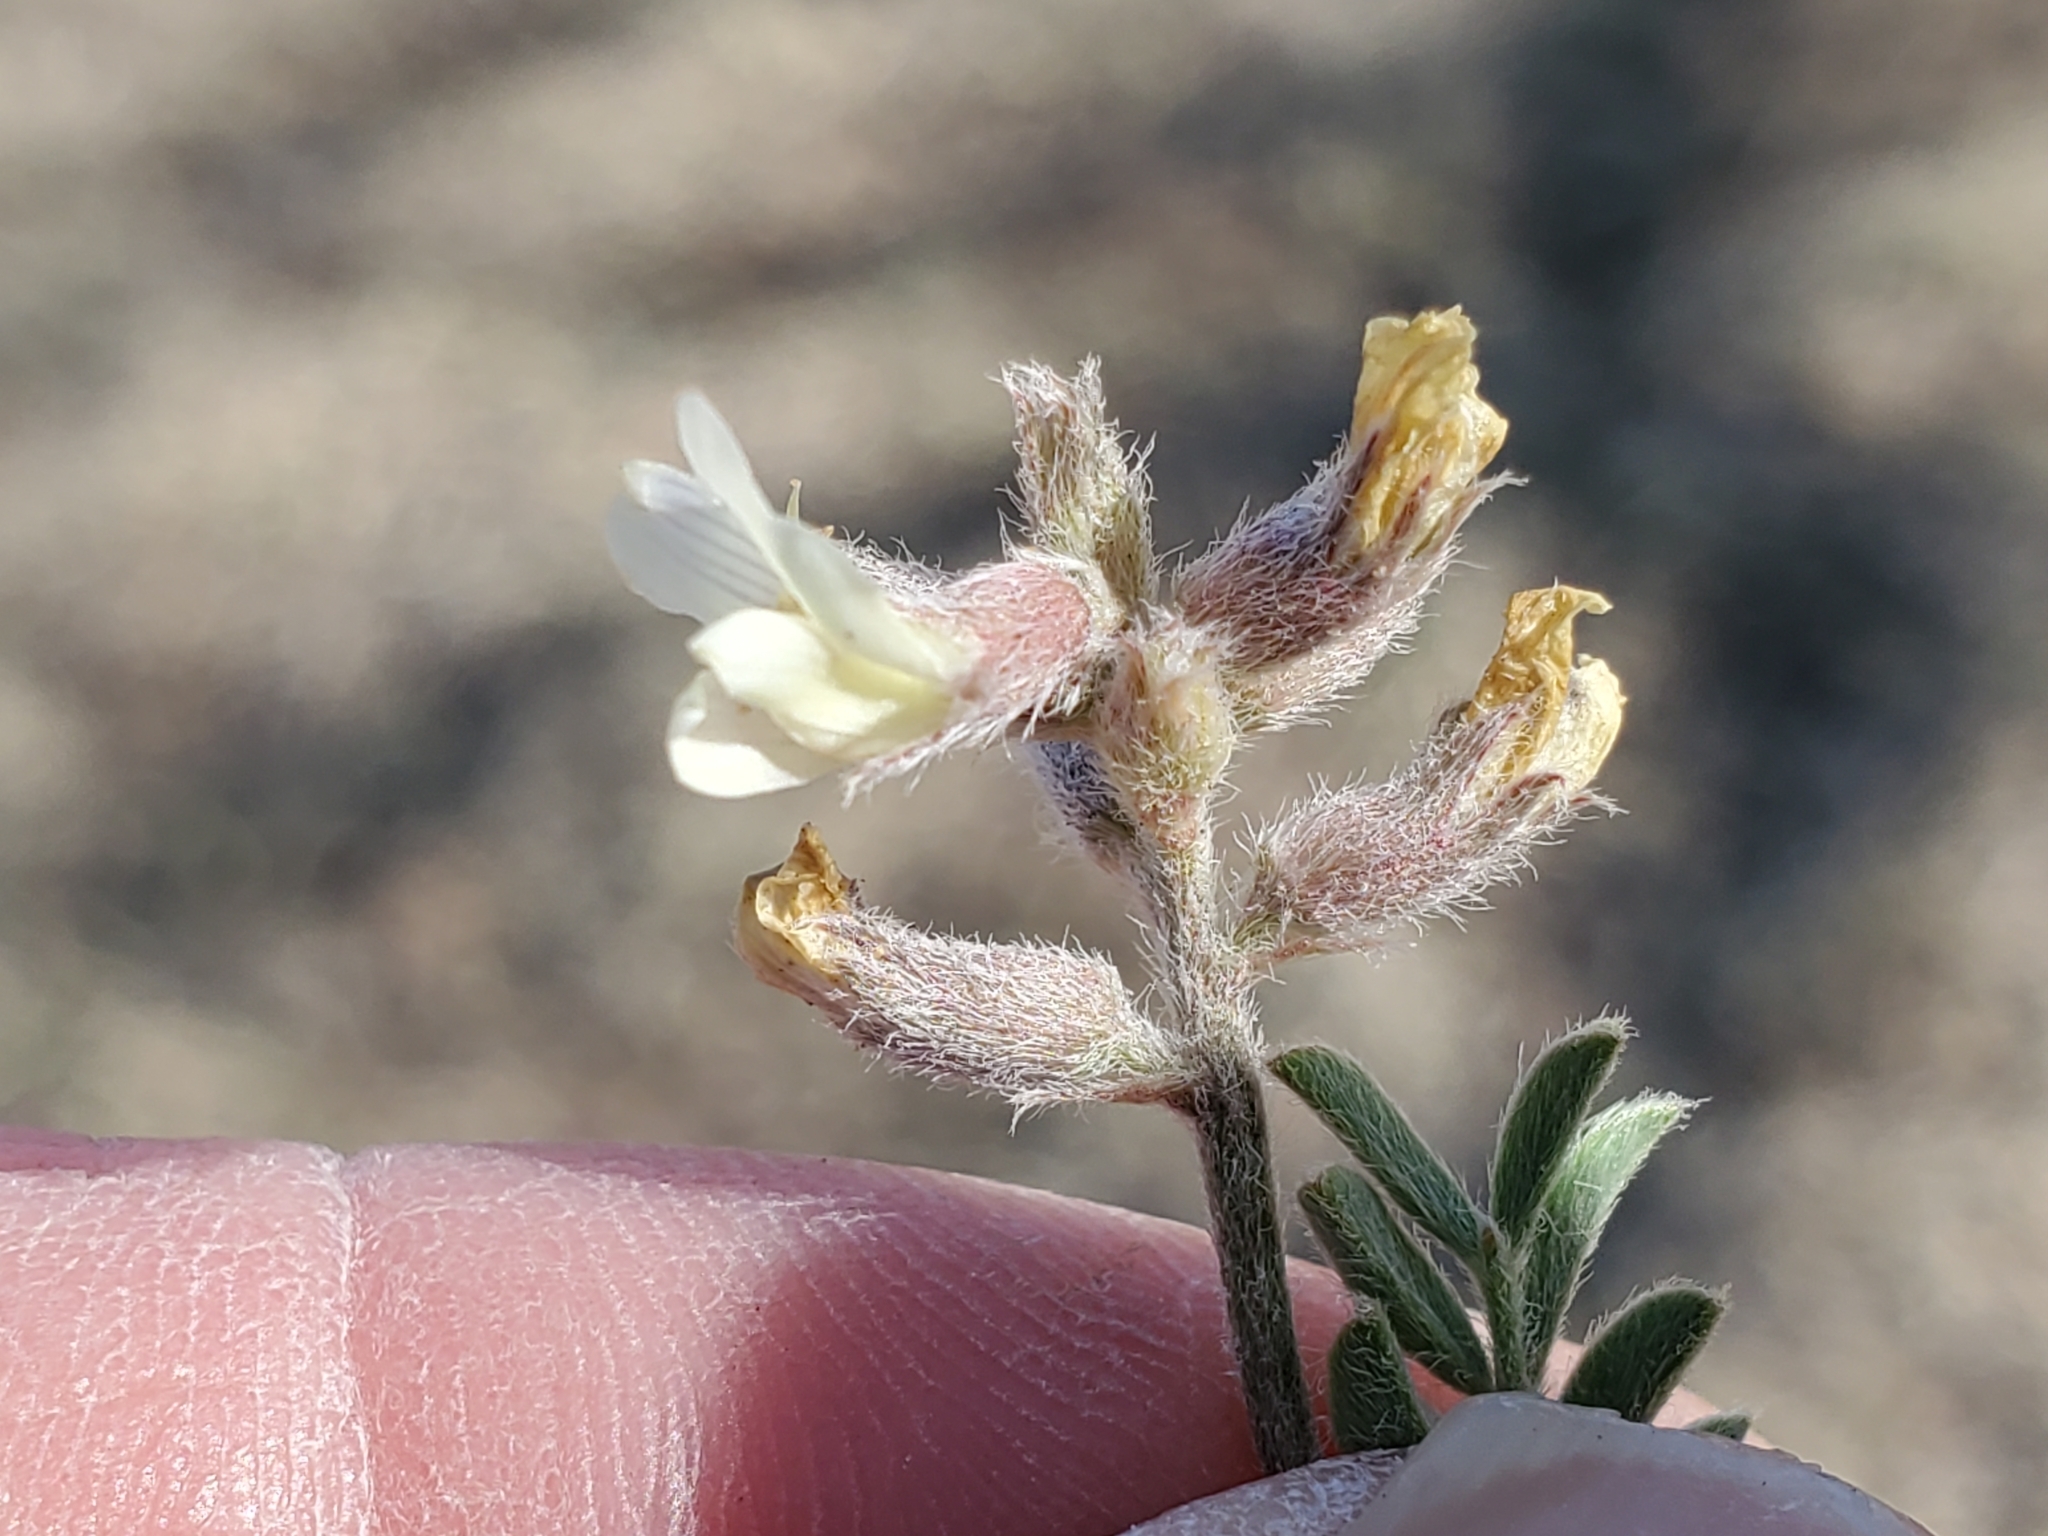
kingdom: Plantae
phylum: Tracheophyta
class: Magnoliopsida
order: Fabales
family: Fabaceae
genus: Astragalus
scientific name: Astragalus lotiflorus
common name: Lotus milk-vetch
